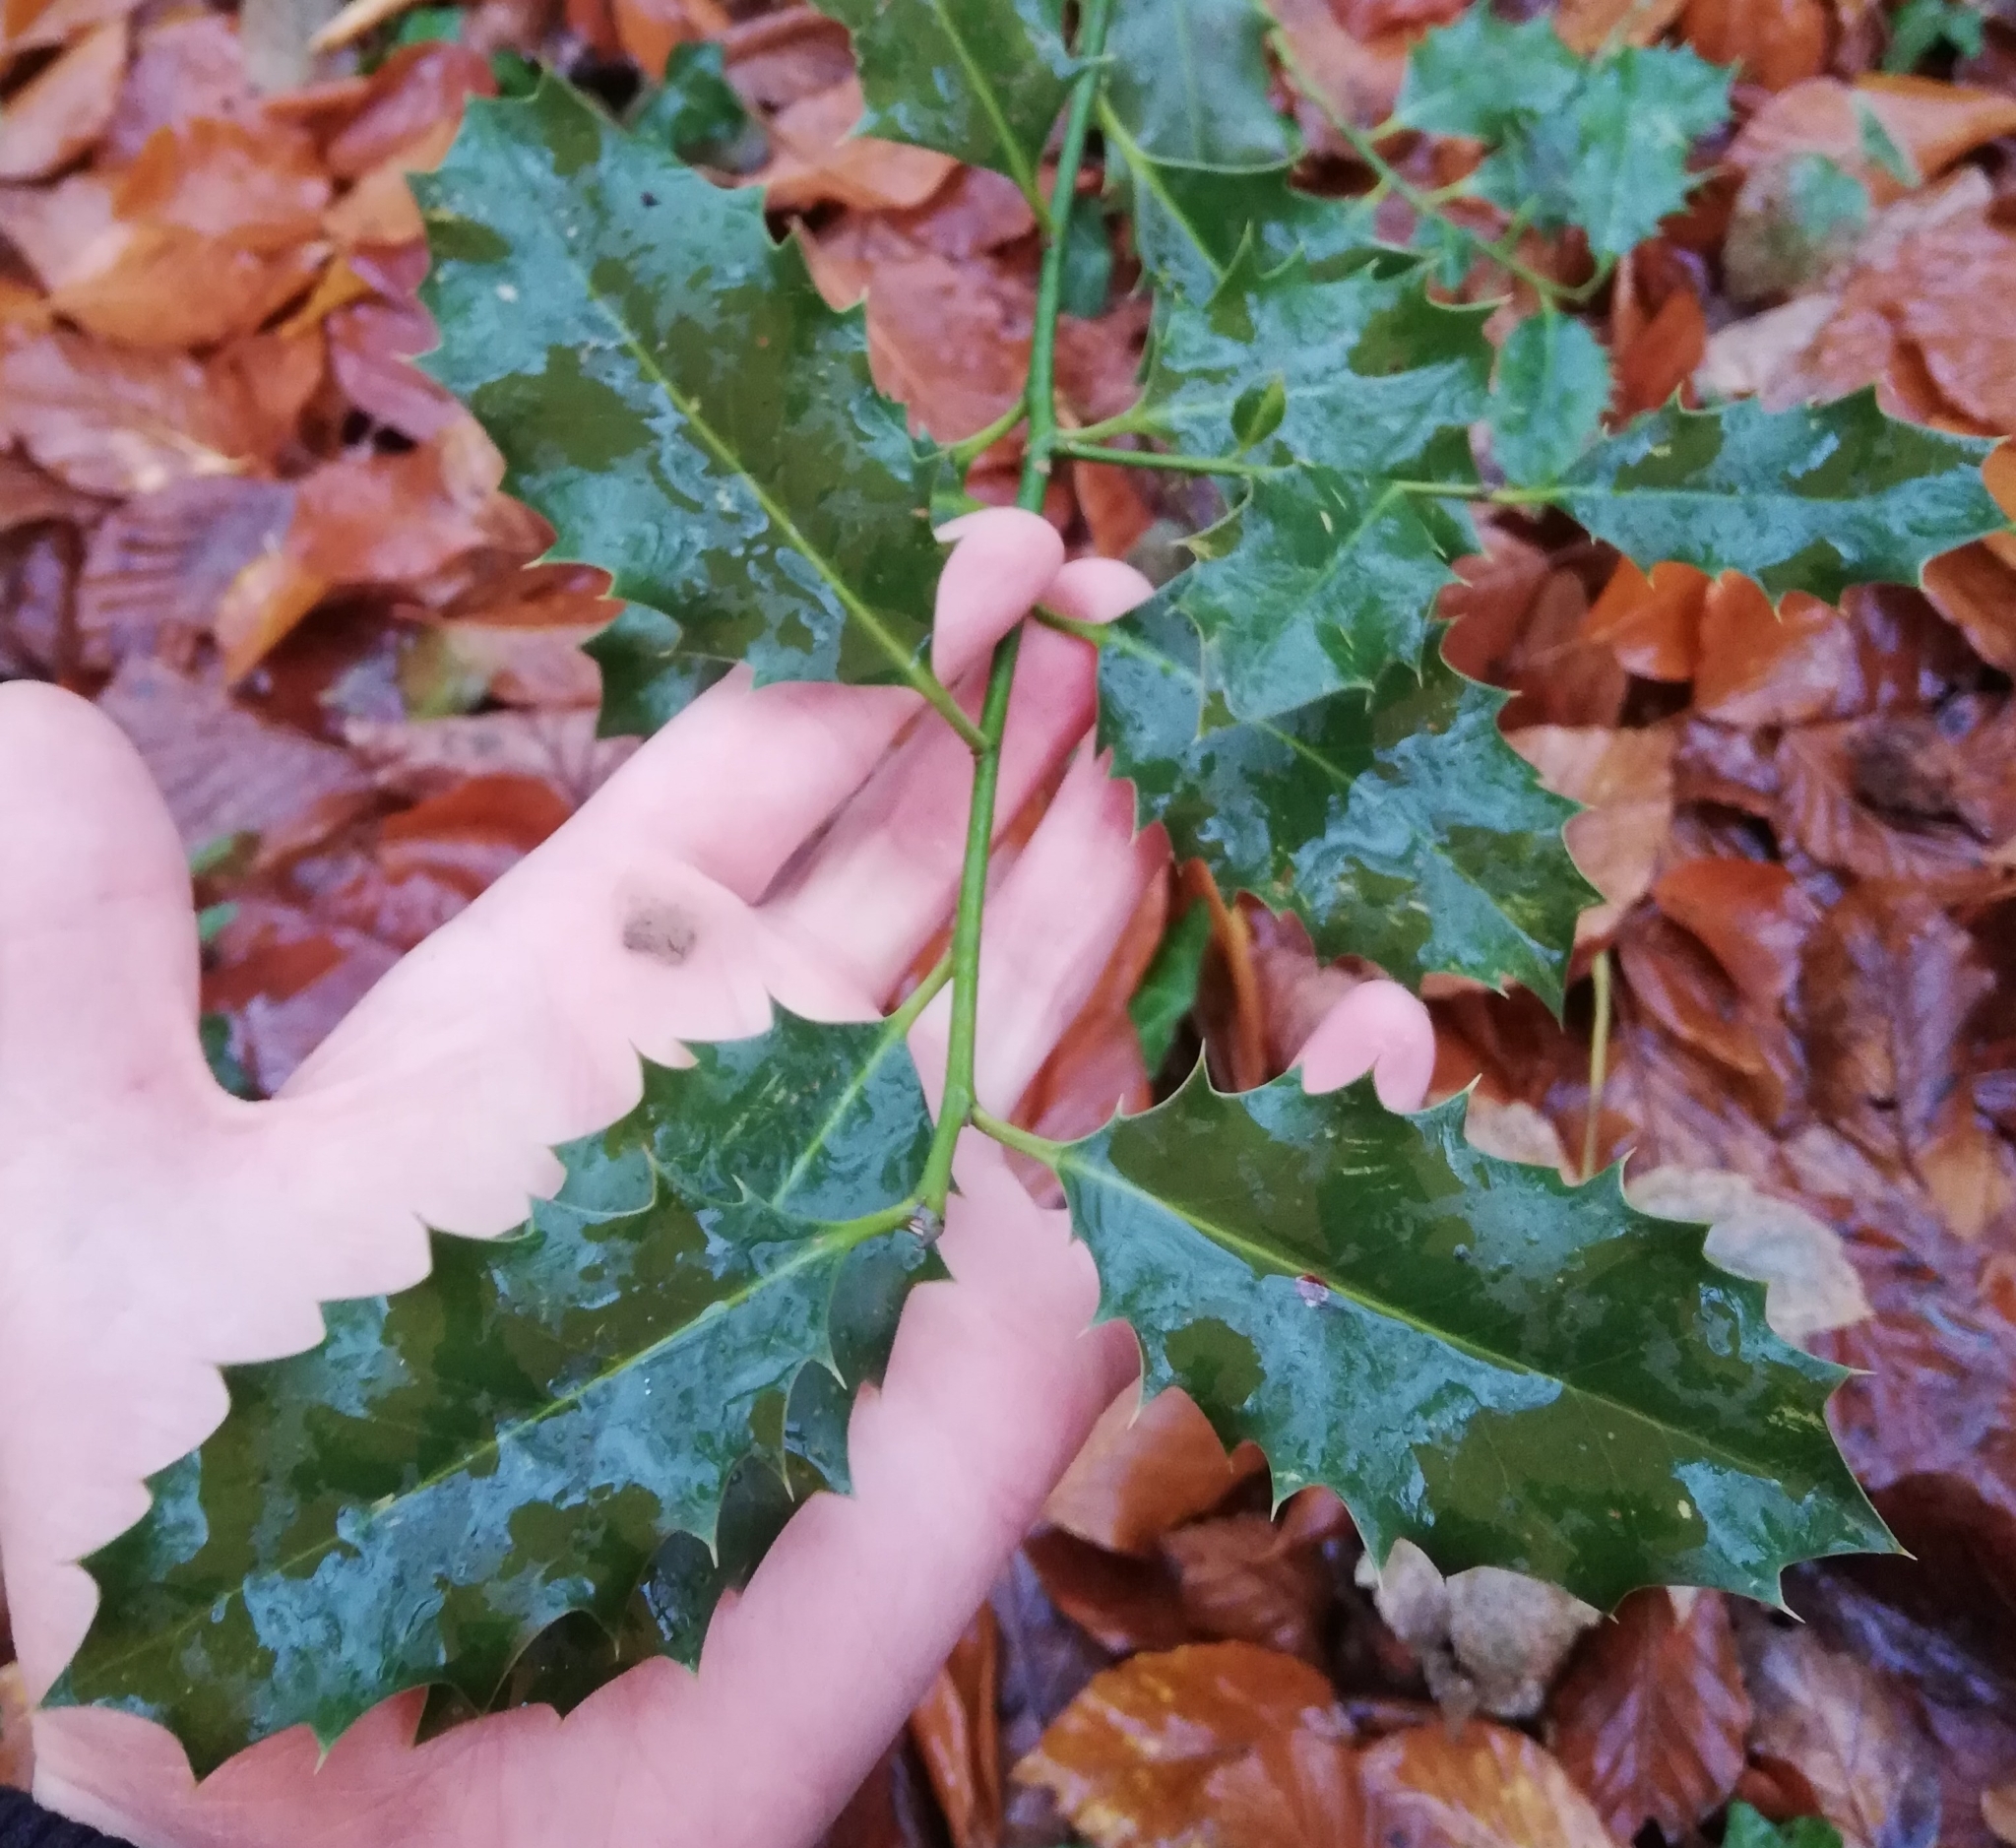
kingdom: Plantae
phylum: Tracheophyta
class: Magnoliopsida
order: Aquifoliales
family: Aquifoliaceae
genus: Ilex
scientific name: Ilex aquifolium
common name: English holly
